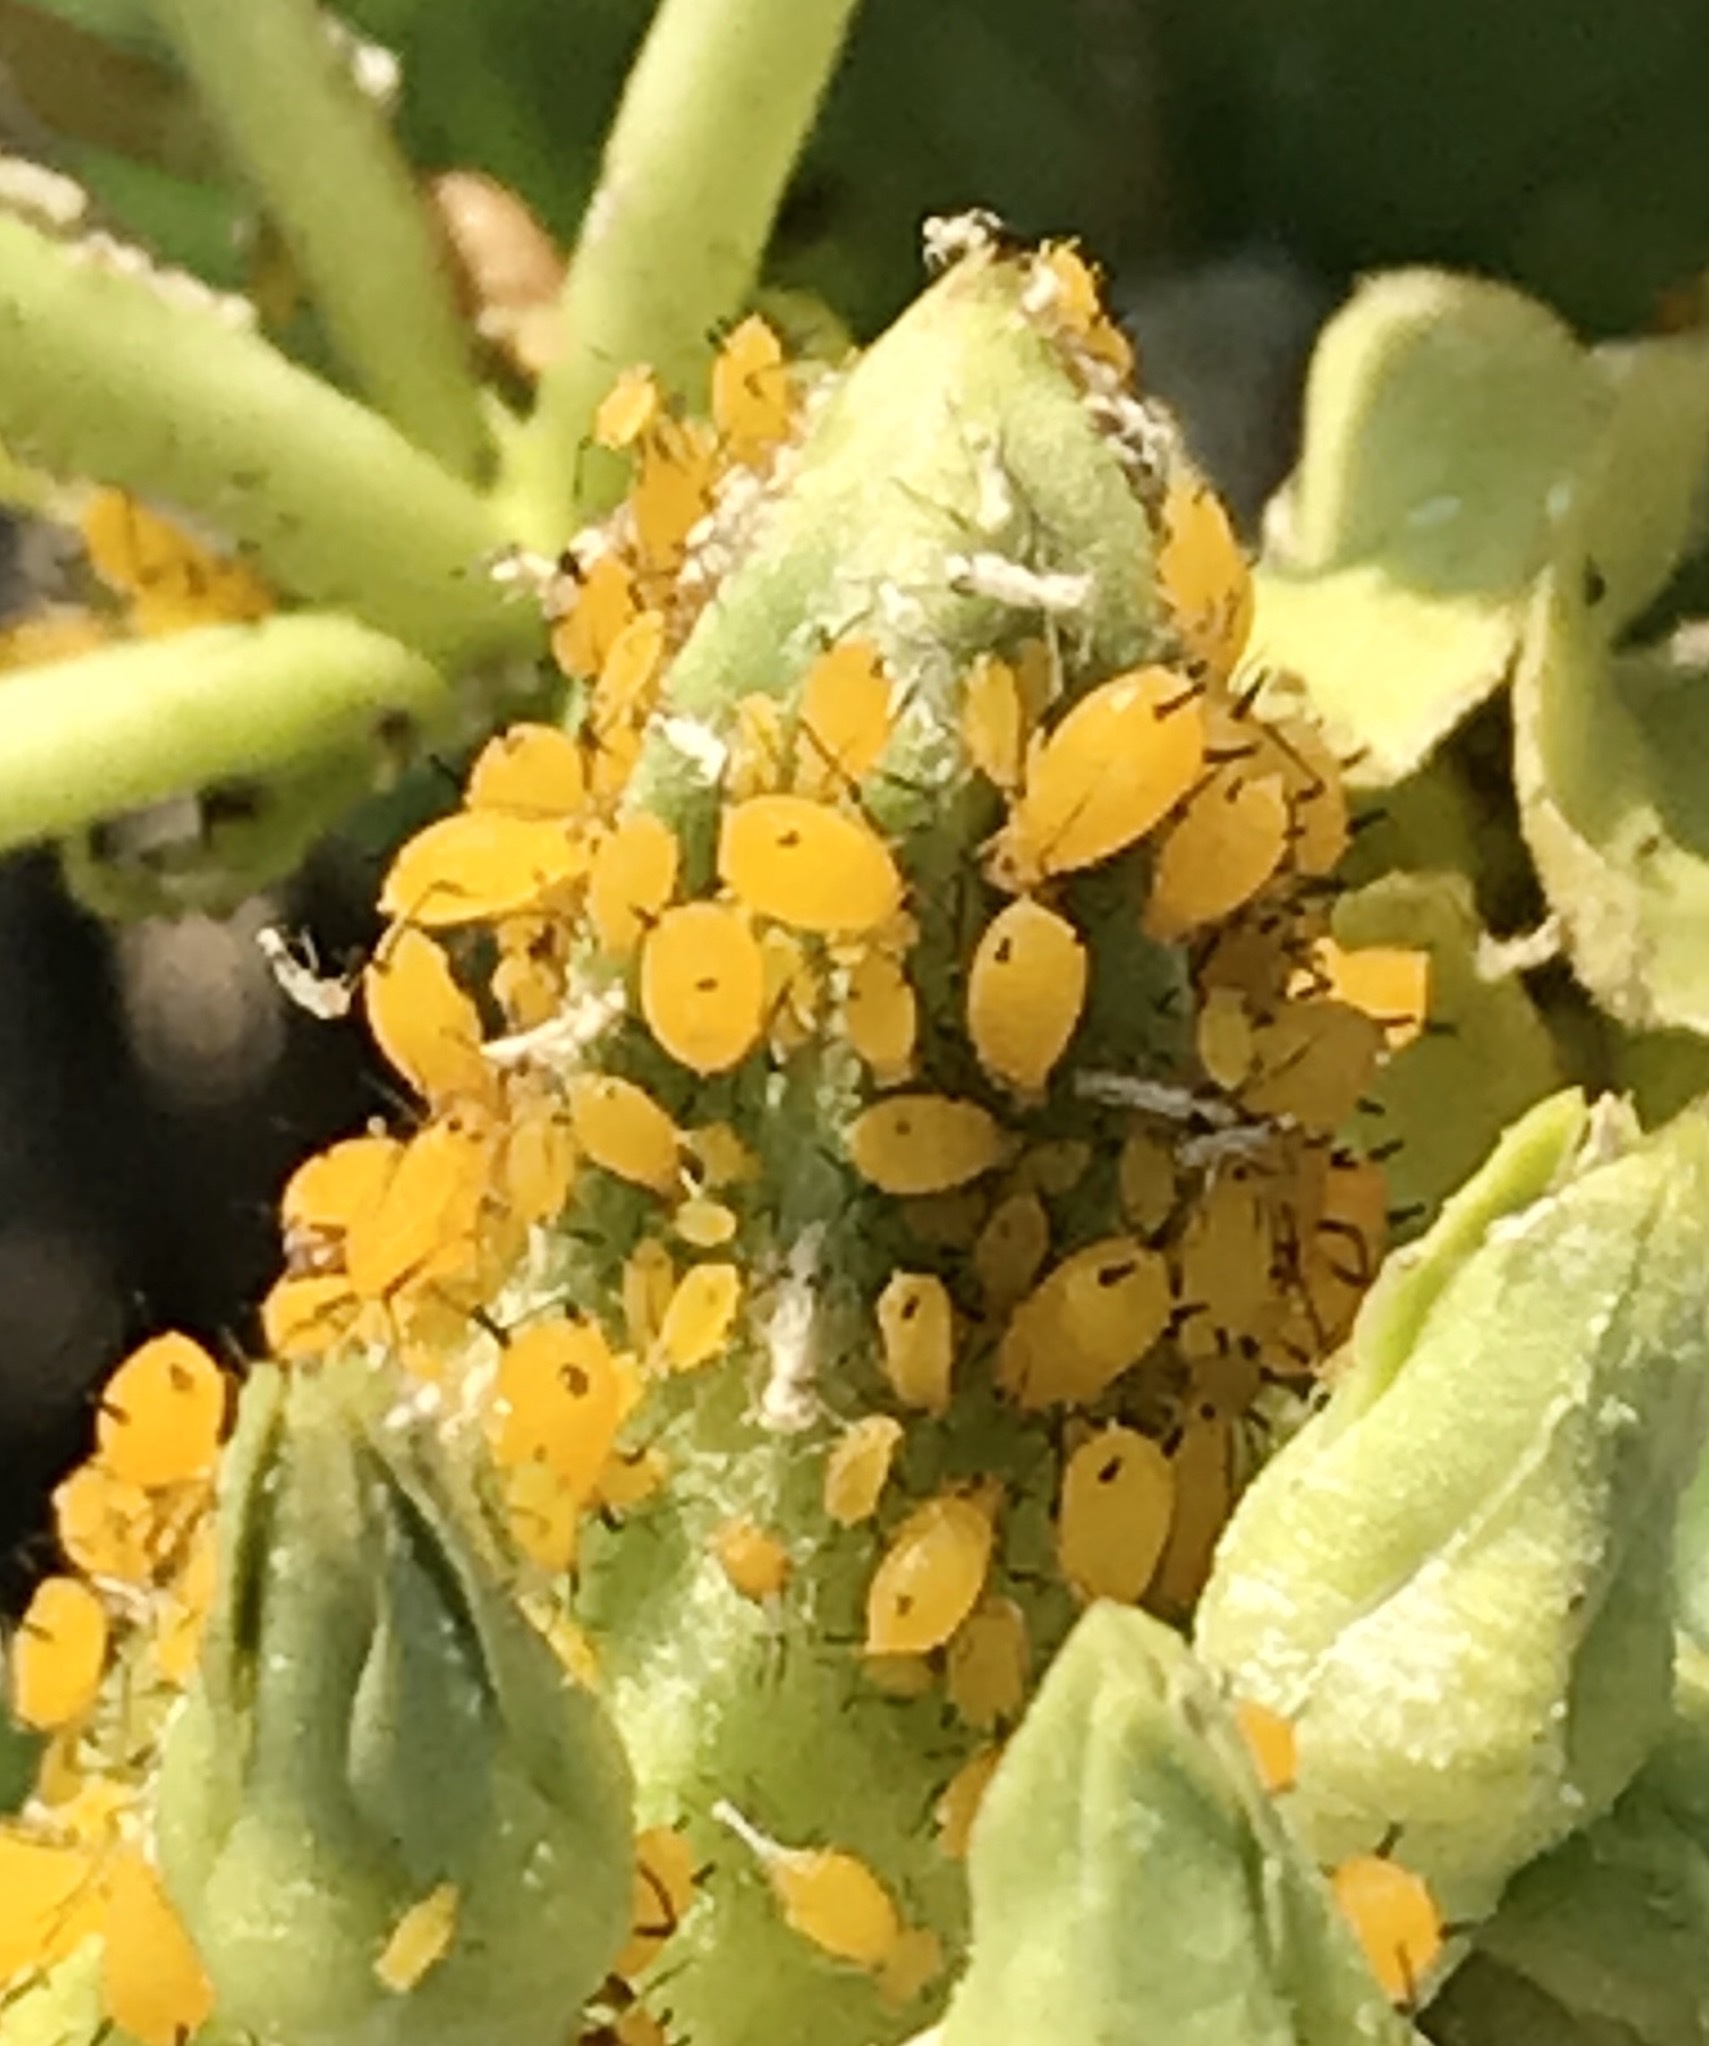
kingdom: Animalia
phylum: Arthropoda
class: Insecta
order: Hemiptera
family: Aphididae
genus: Aphis
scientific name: Aphis nerii
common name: Oleander aphid
